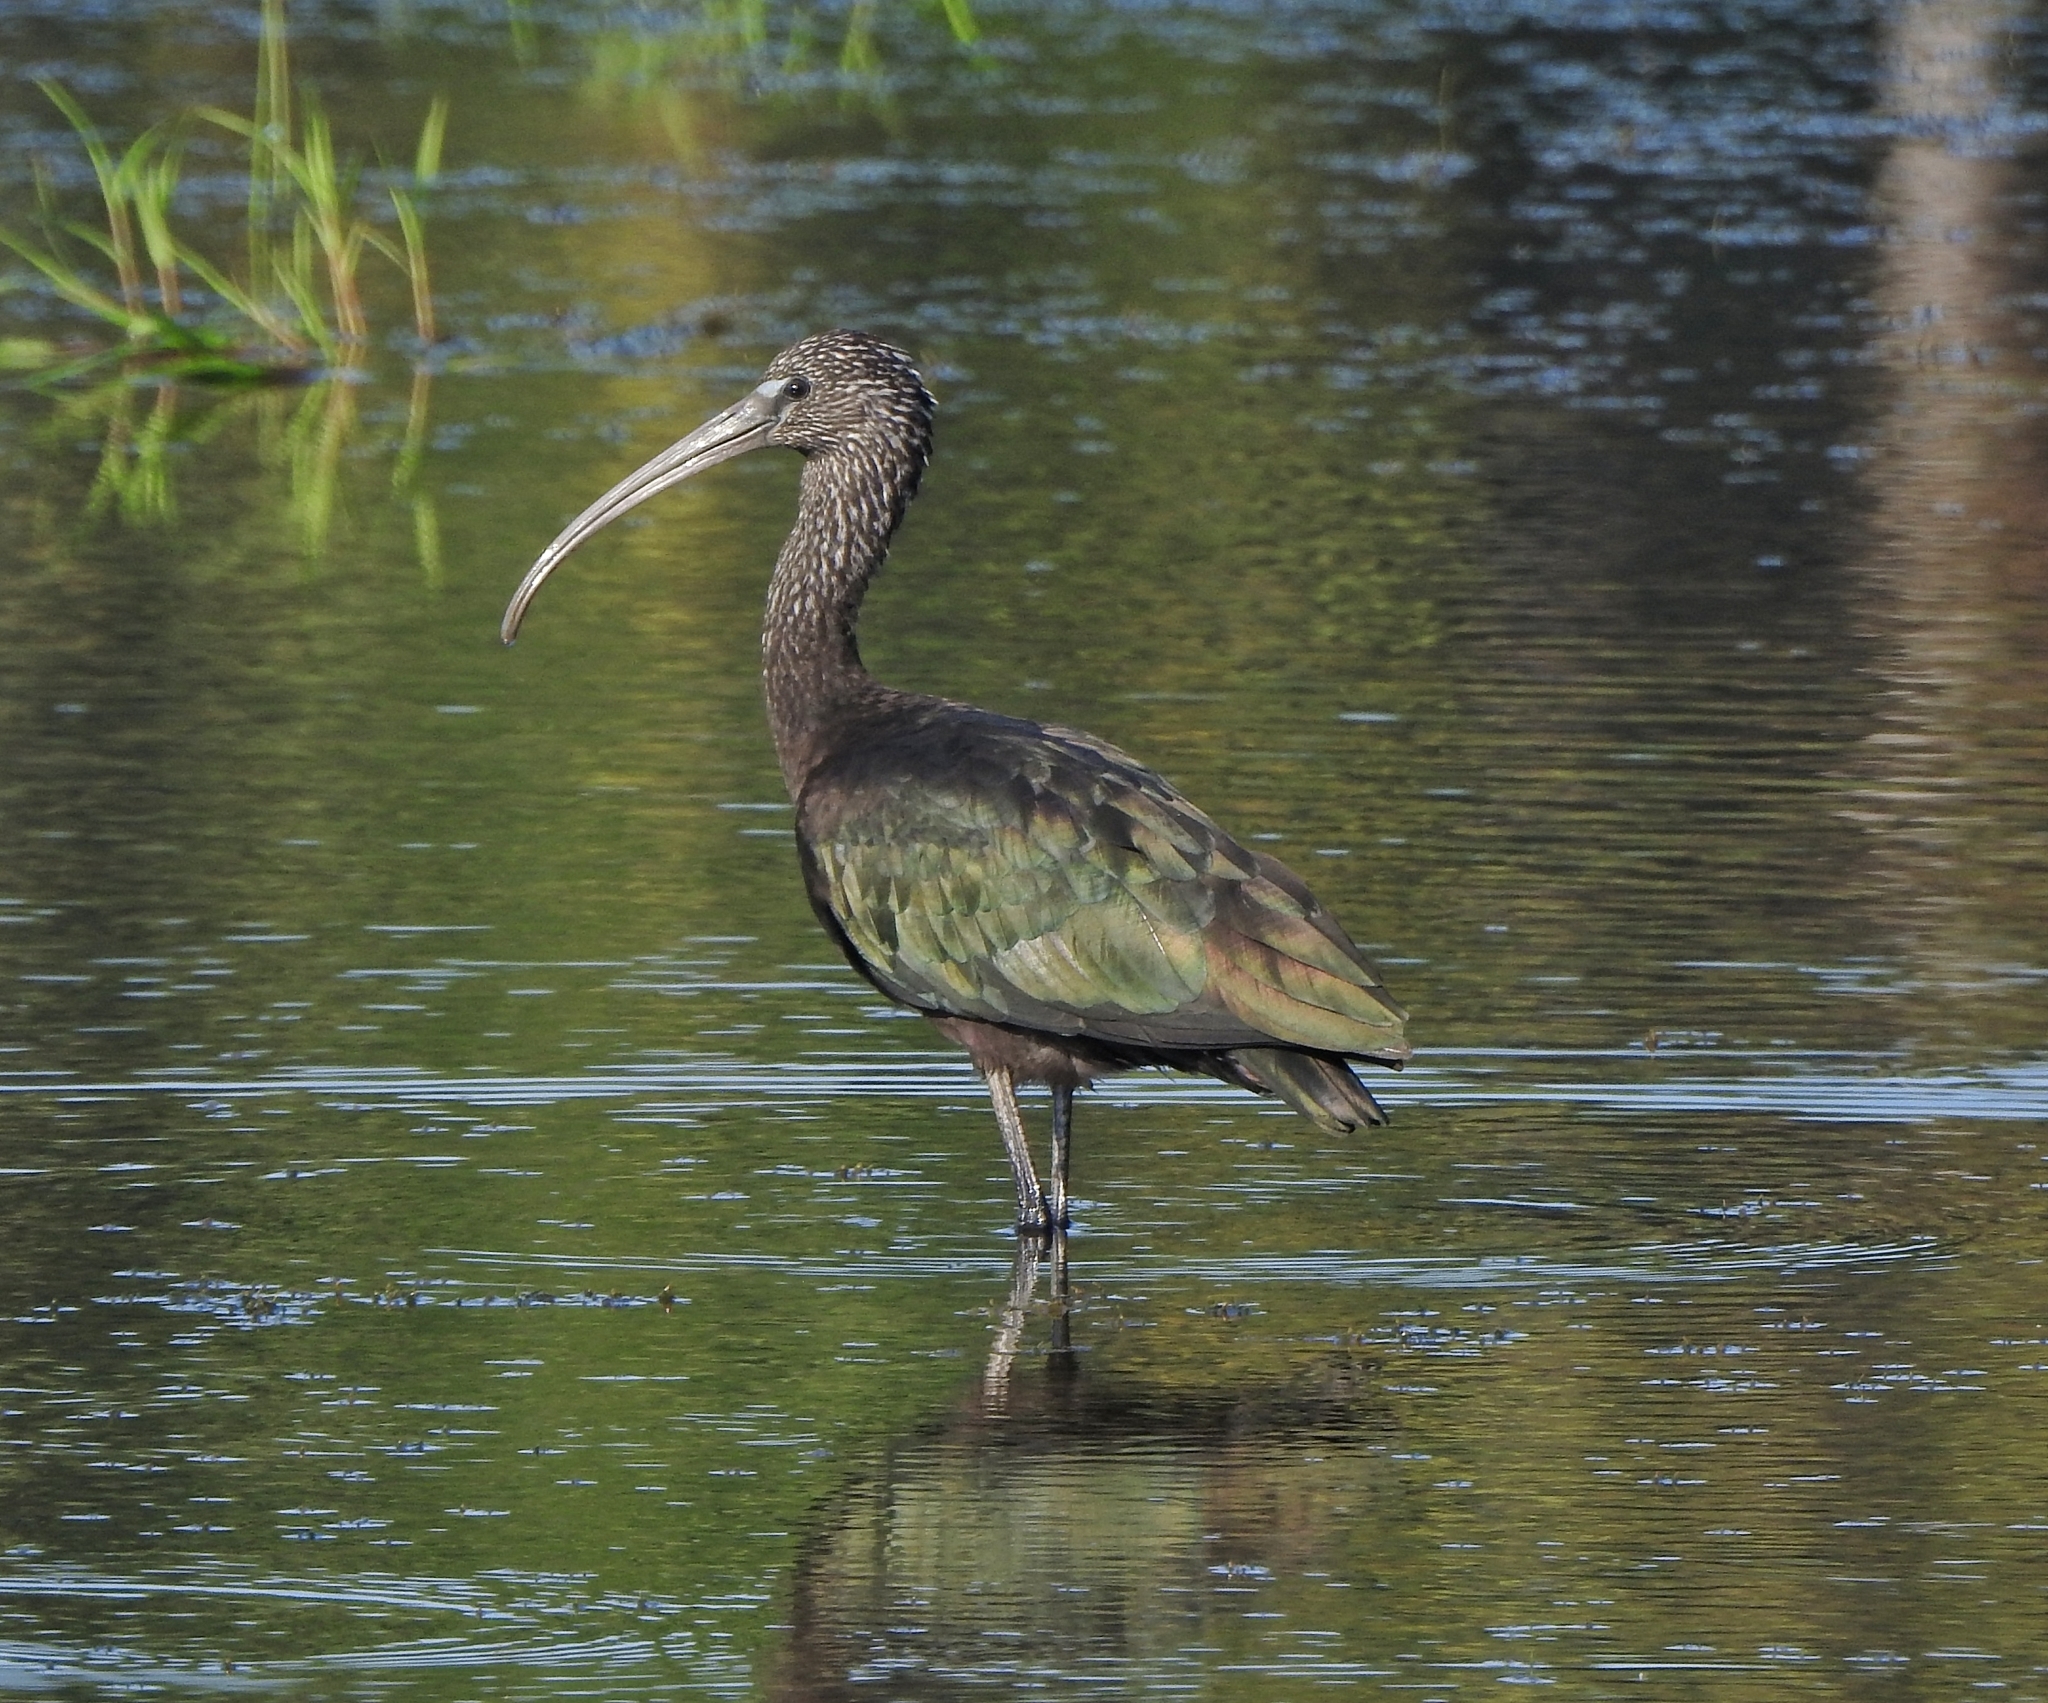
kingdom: Animalia
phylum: Chordata
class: Aves
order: Pelecaniformes
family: Threskiornithidae
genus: Plegadis
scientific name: Plegadis falcinellus
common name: Glossy ibis
